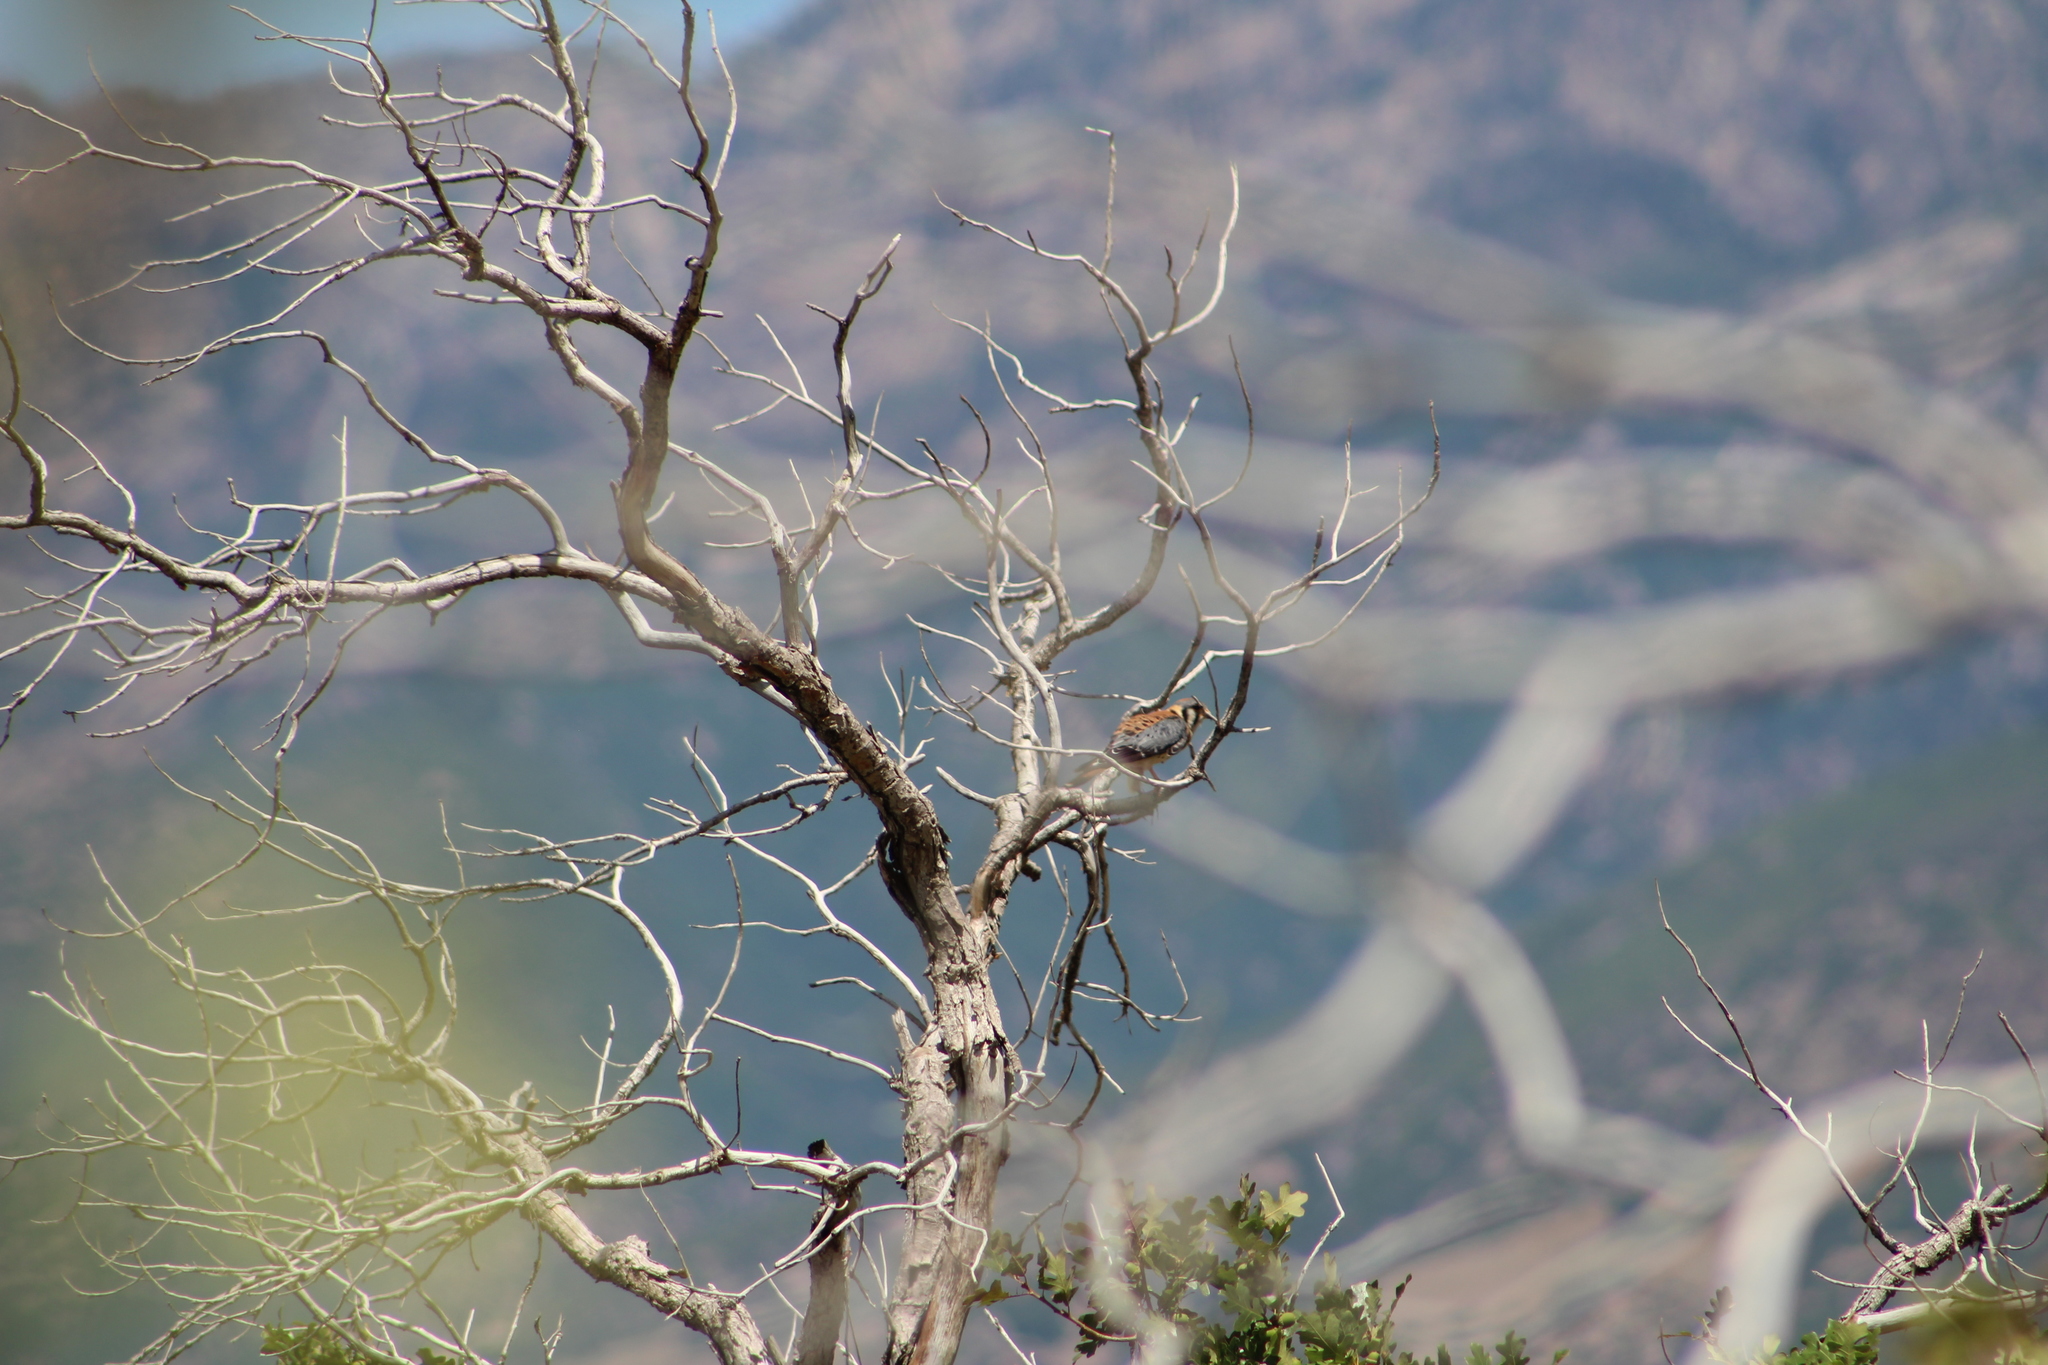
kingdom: Animalia
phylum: Chordata
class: Aves
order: Falconiformes
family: Falconidae
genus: Falco
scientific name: Falco sparverius
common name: American kestrel
